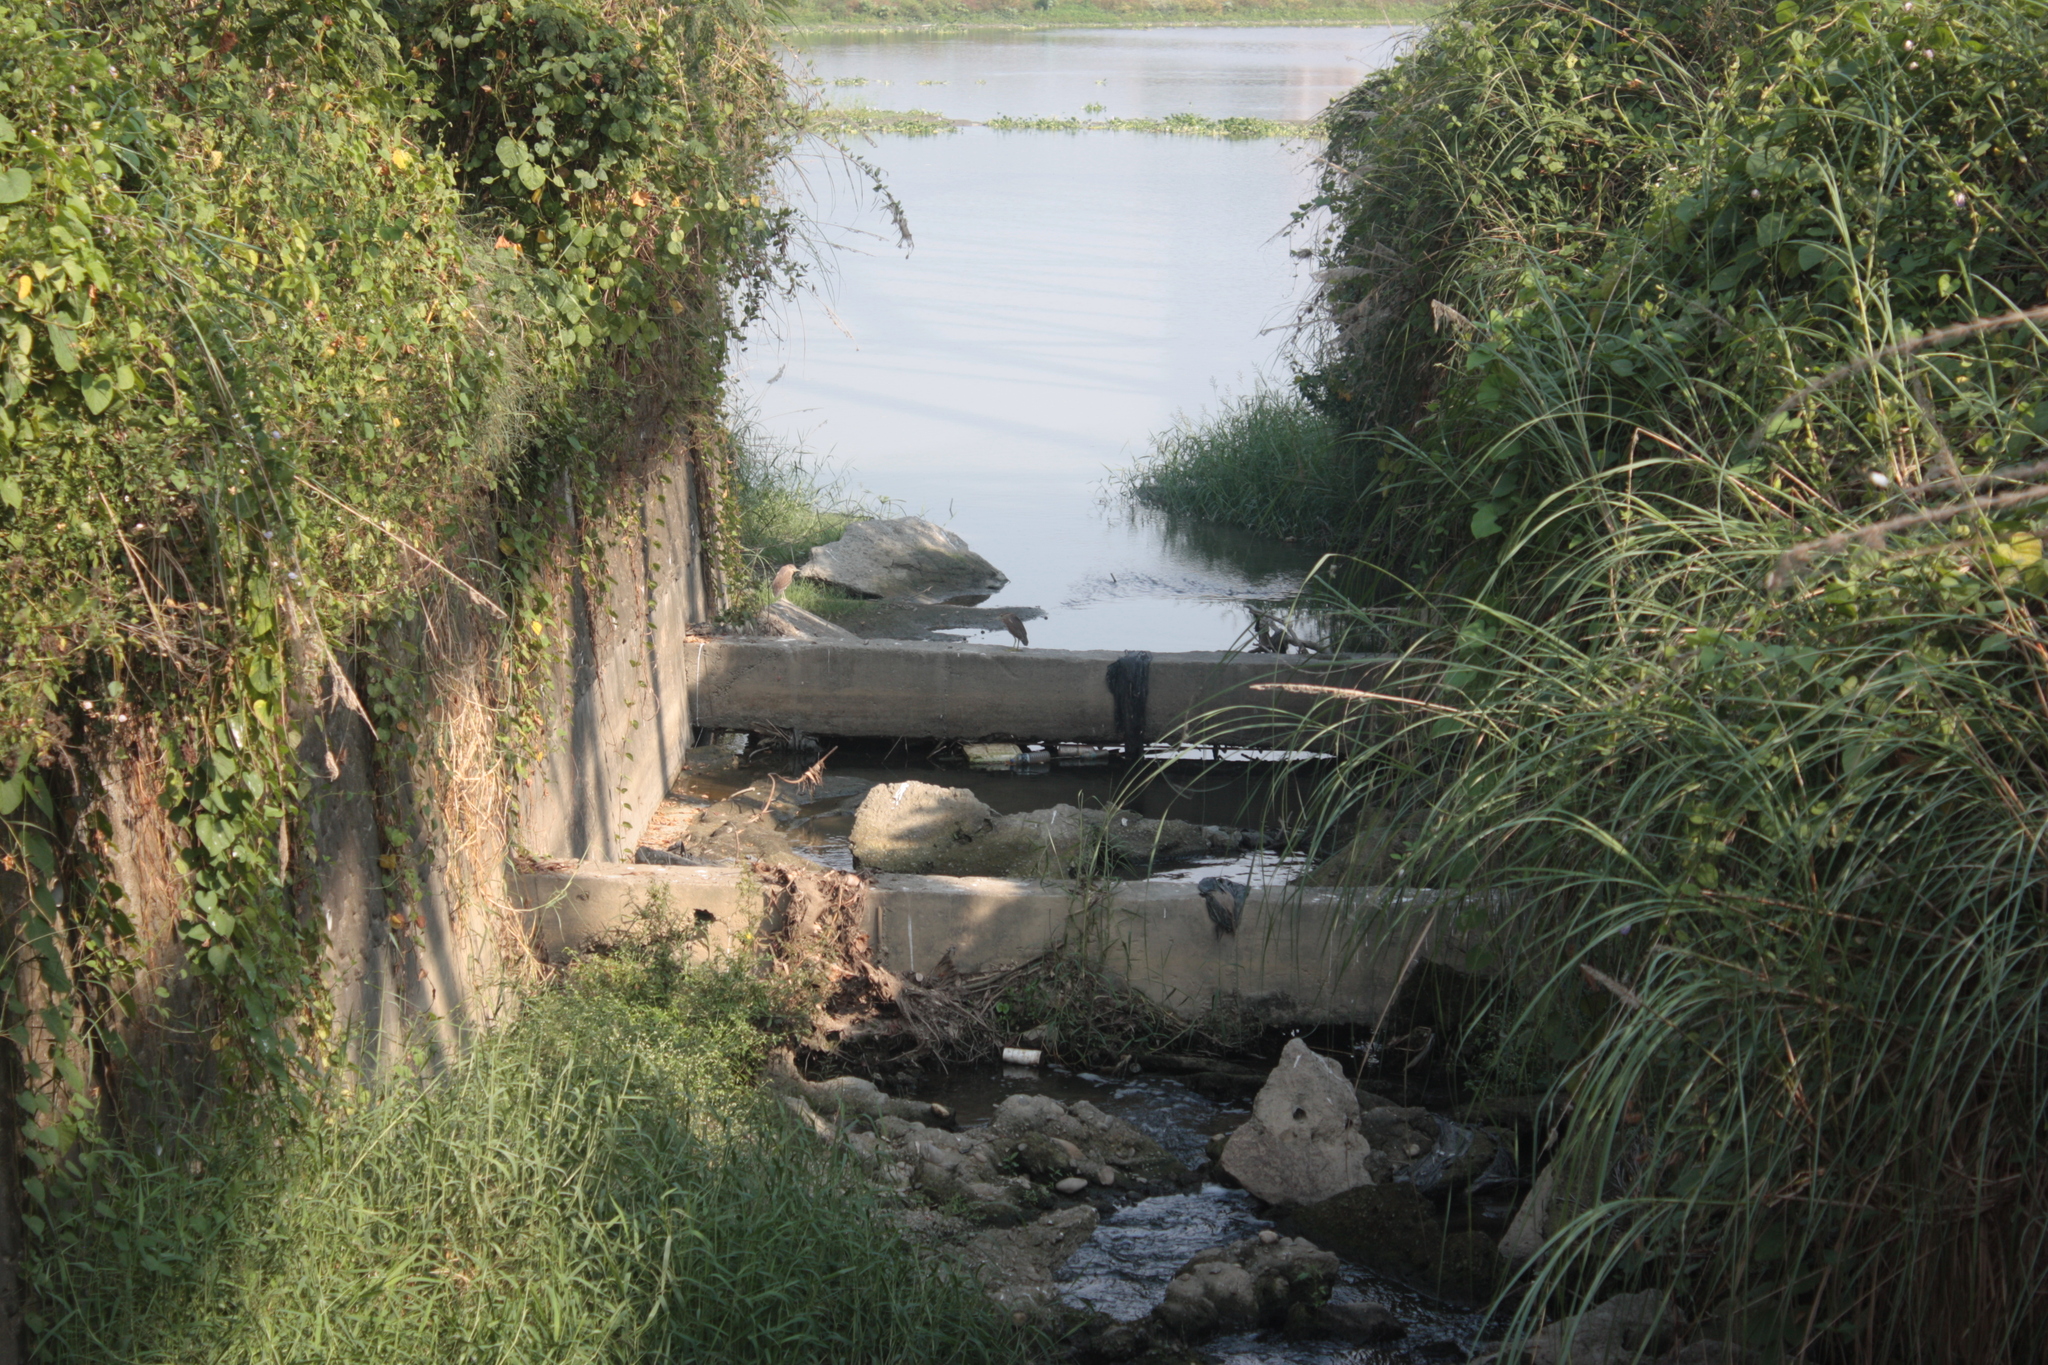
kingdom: Animalia
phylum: Chordata
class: Aves
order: Pelecaniformes
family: Ardeidae
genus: Nycticorax
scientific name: Nycticorax nycticorax
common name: Black-crowned night heron
